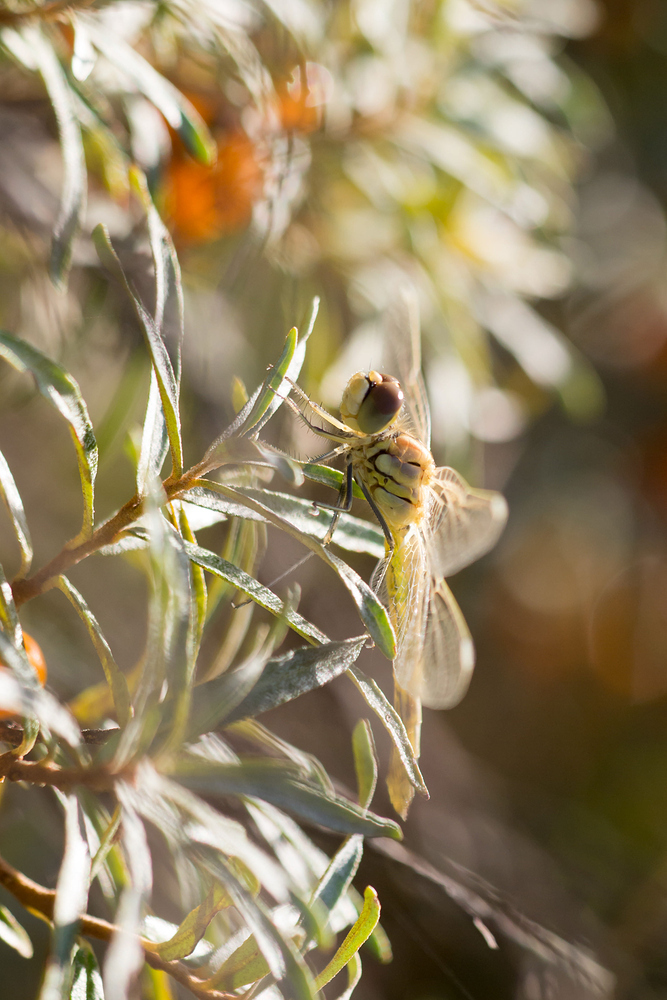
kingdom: Animalia
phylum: Arthropoda
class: Insecta
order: Odonata
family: Libellulidae
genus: Sympetrum
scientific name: Sympetrum fonscolombii
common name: Red-veined darter
